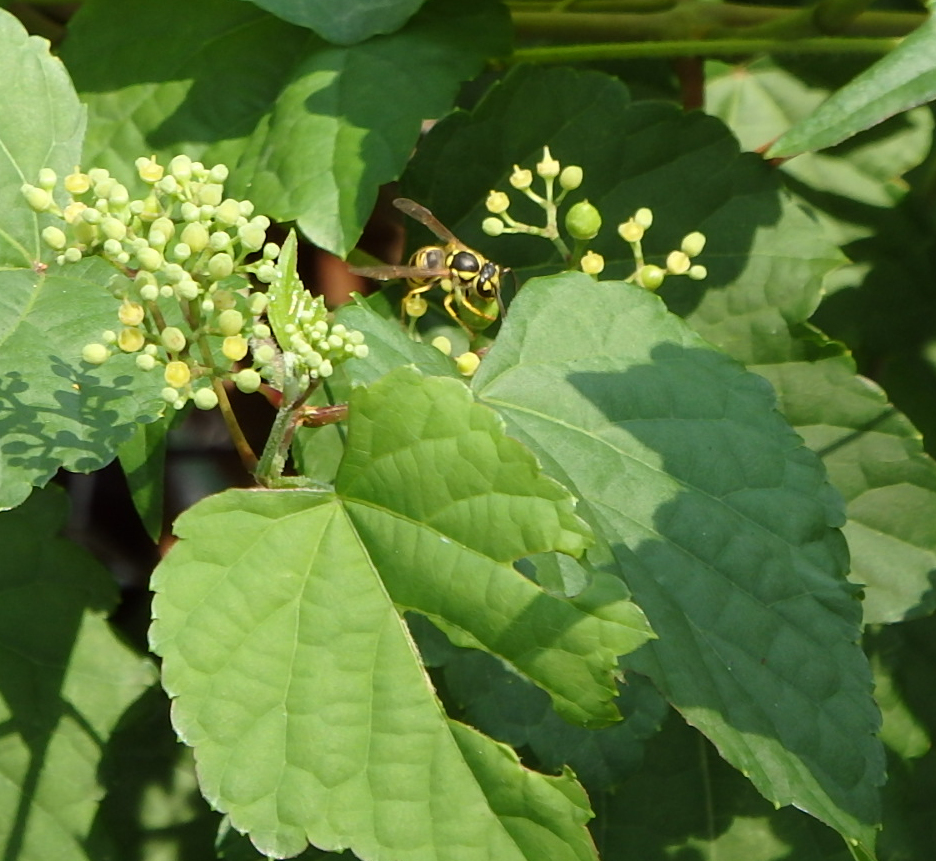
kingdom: Animalia
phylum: Arthropoda
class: Insecta
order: Hymenoptera
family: Vespidae
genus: Vespula
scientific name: Vespula maculifrons
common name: Eastern yellowjacket
